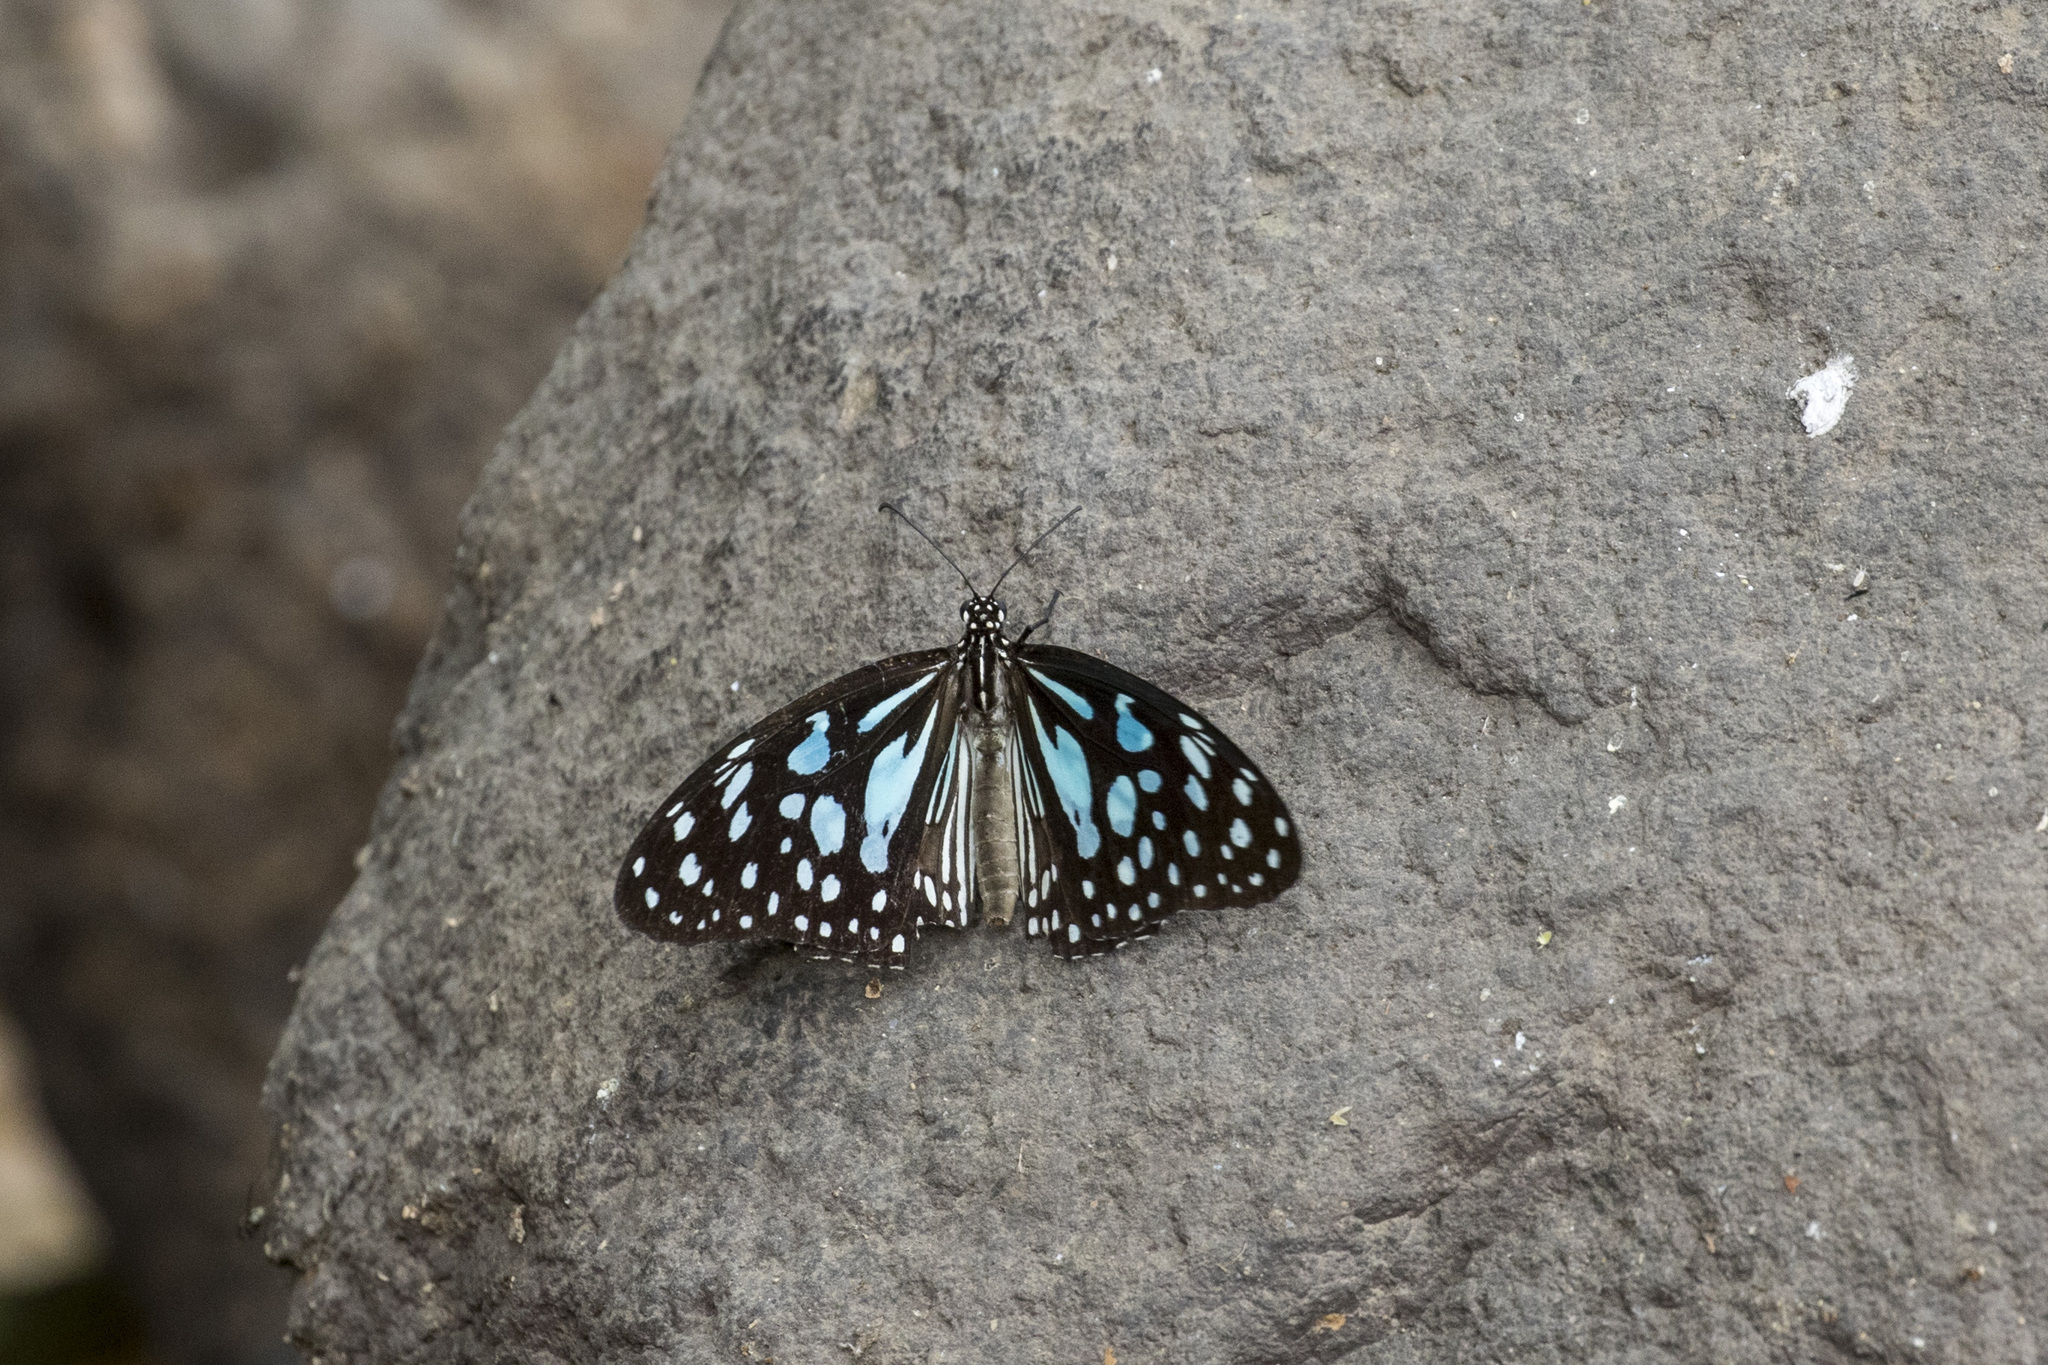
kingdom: Animalia
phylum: Arthropoda
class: Insecta
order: Lepidoptera
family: Nymphalidae
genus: Tirumala
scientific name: Tirumala limniace
